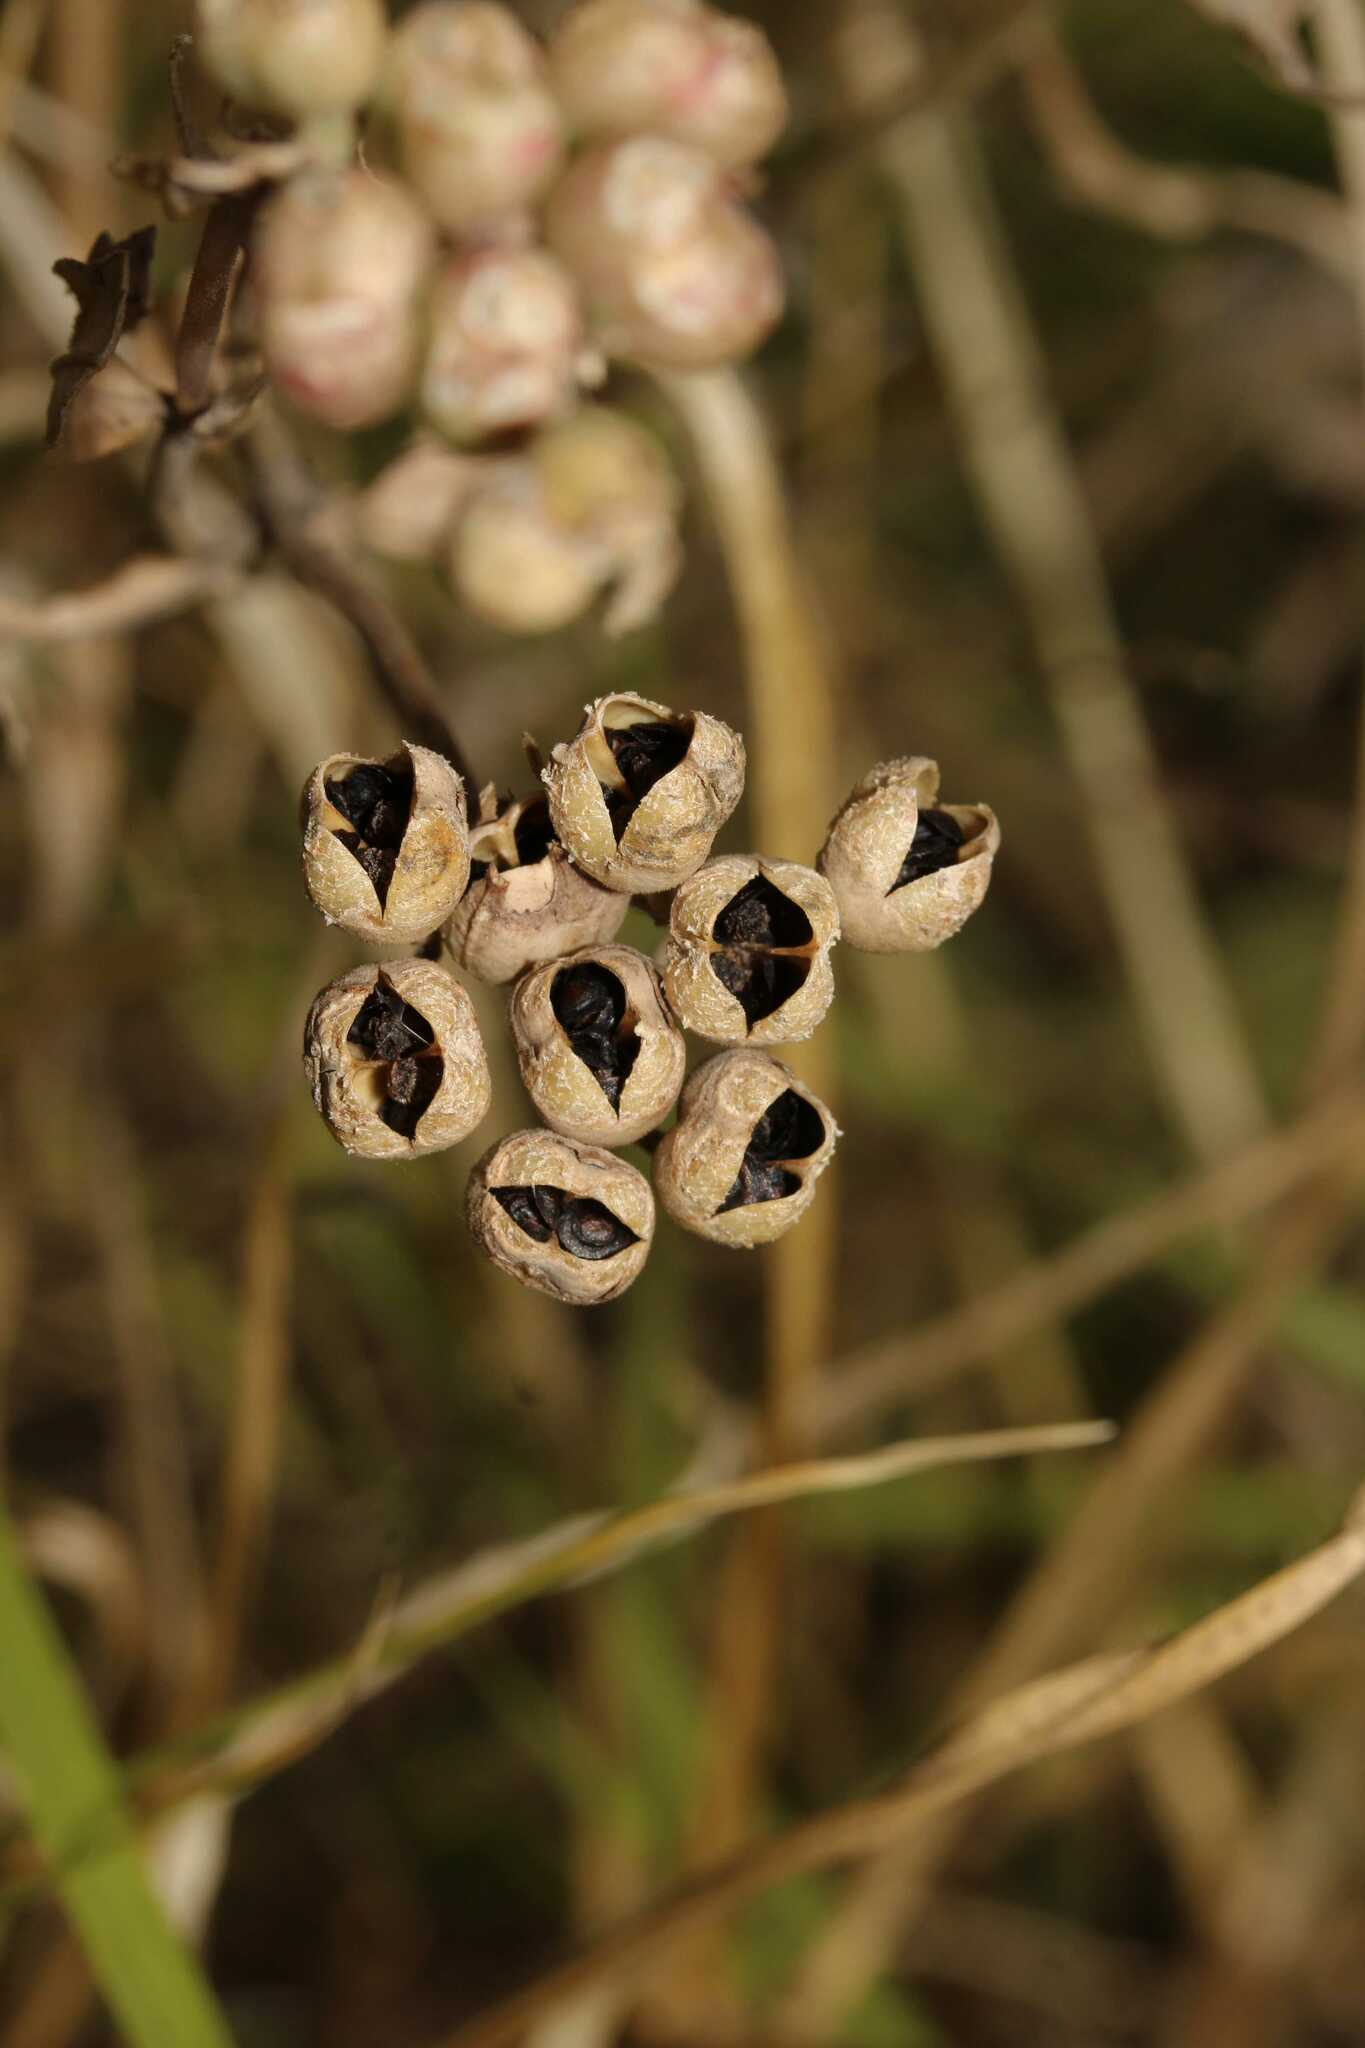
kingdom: Plantae
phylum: Tracheophyta
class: Magnoliopsida
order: Gentianales
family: Rubiaceae
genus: Bouvardia
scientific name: Bouvardia ternifolia
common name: Scarlet bouvardia
